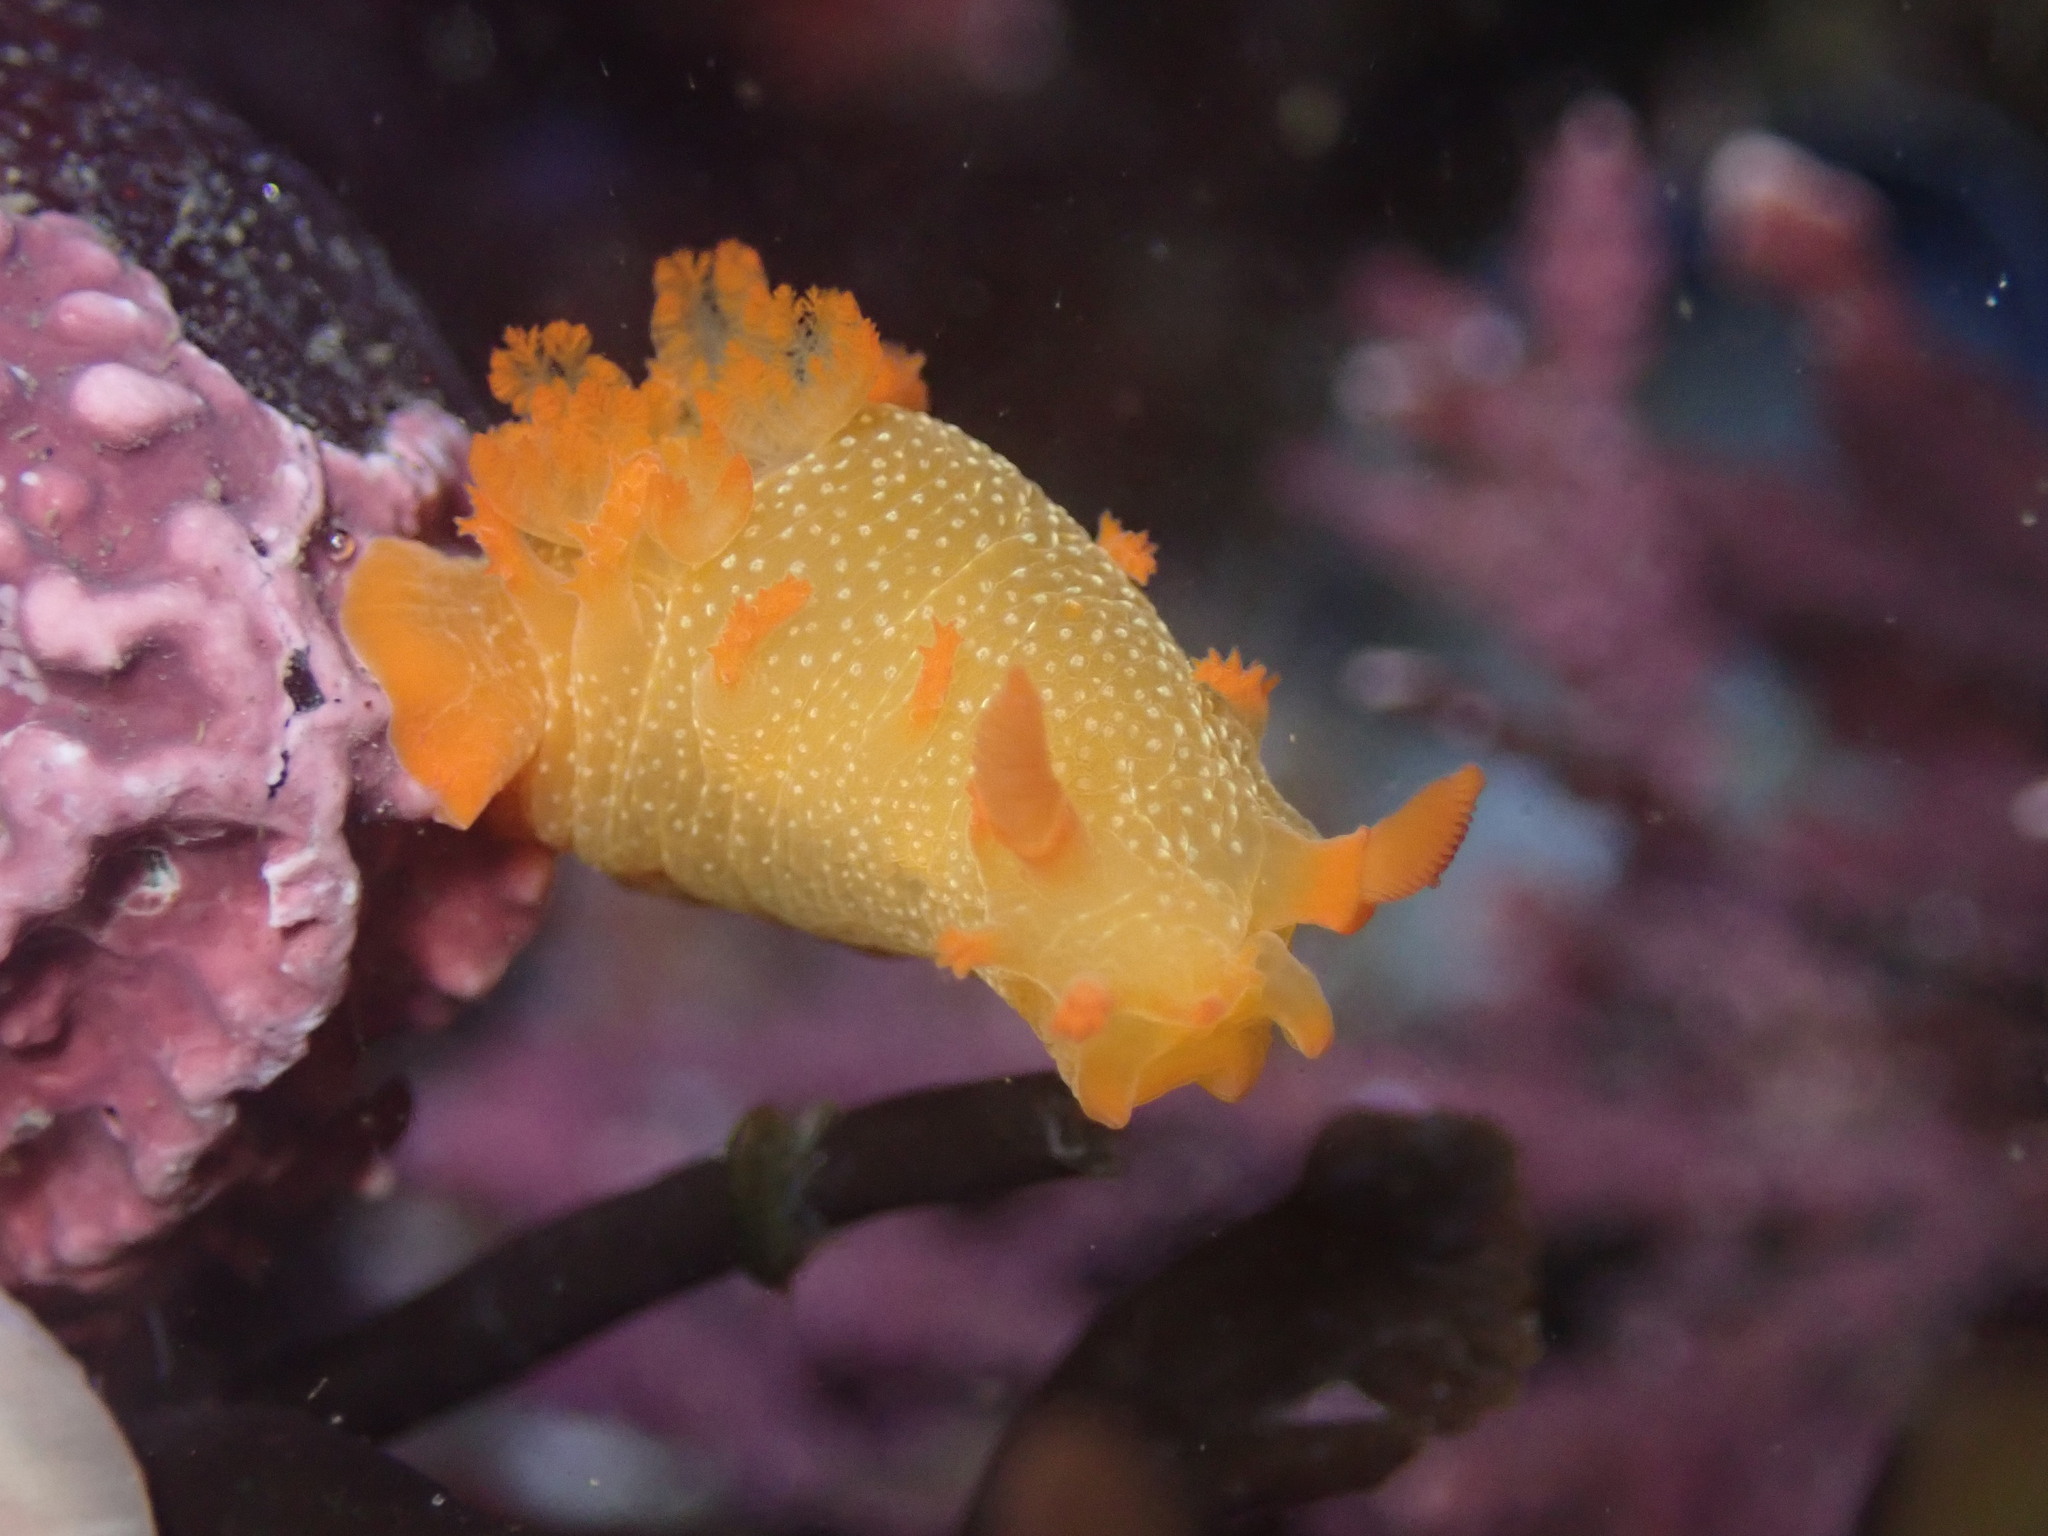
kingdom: Animalia
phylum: Mollusca
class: Gastropoda
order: Nudibranchia
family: Polyceridae
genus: Triopha
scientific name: Triopha maculata
